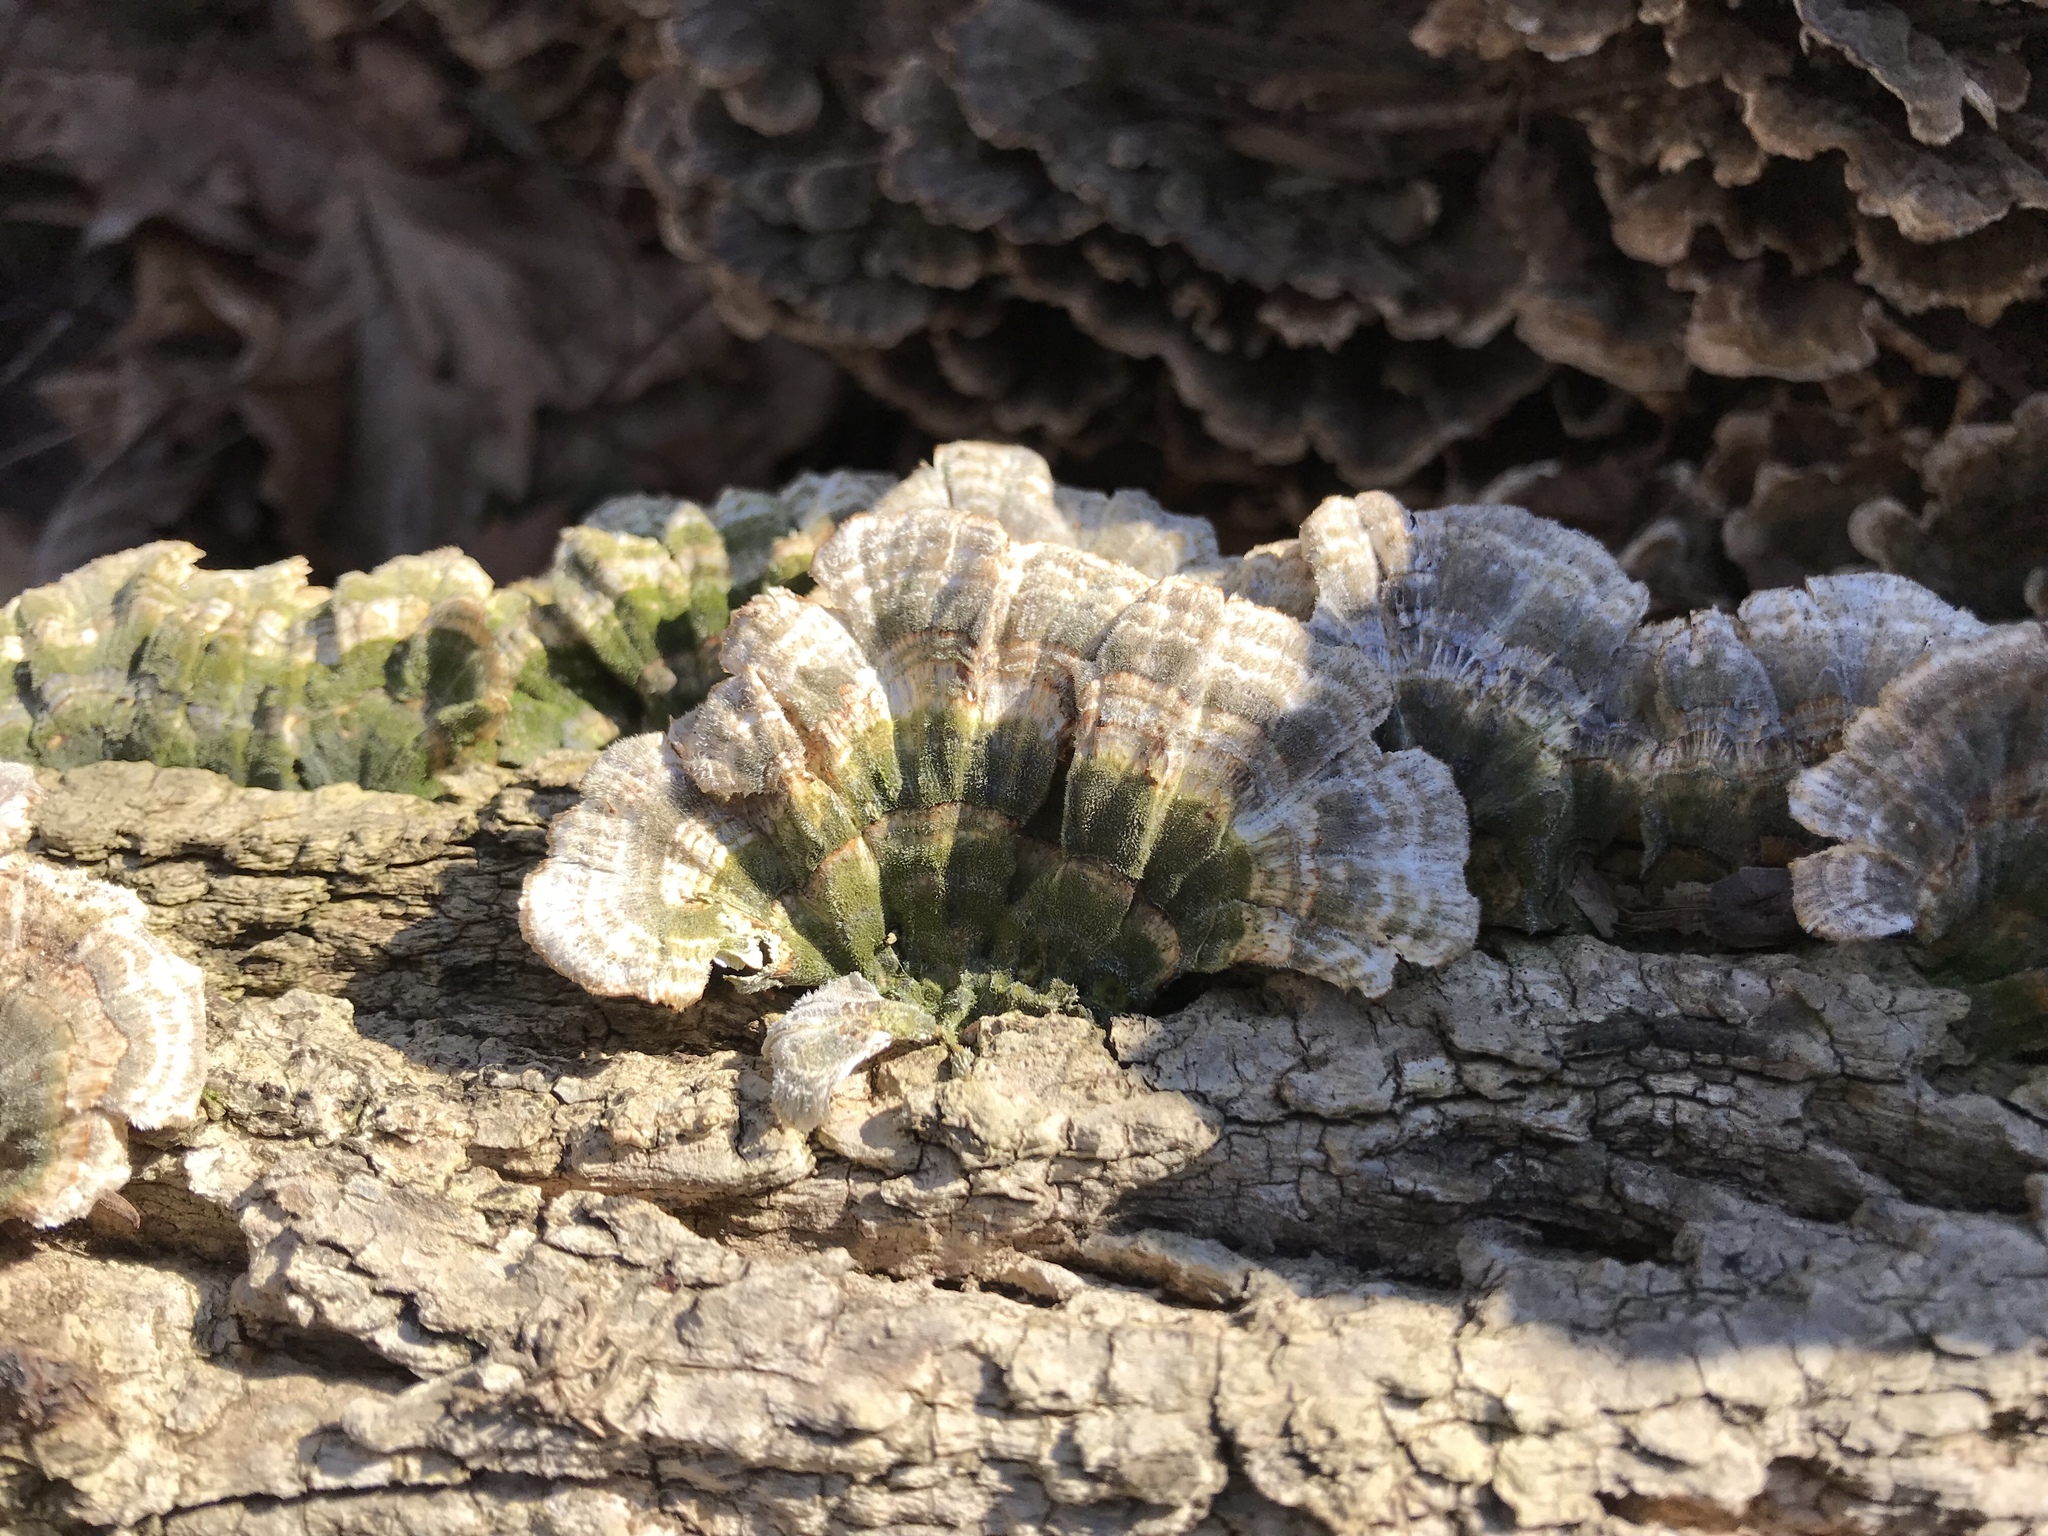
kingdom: Fungi
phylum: Basidiomycota
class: Agaricomycetes
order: Polyporales
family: Polyporaceae
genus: Trametes
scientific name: Trametes versicolor
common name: Turkeytail
